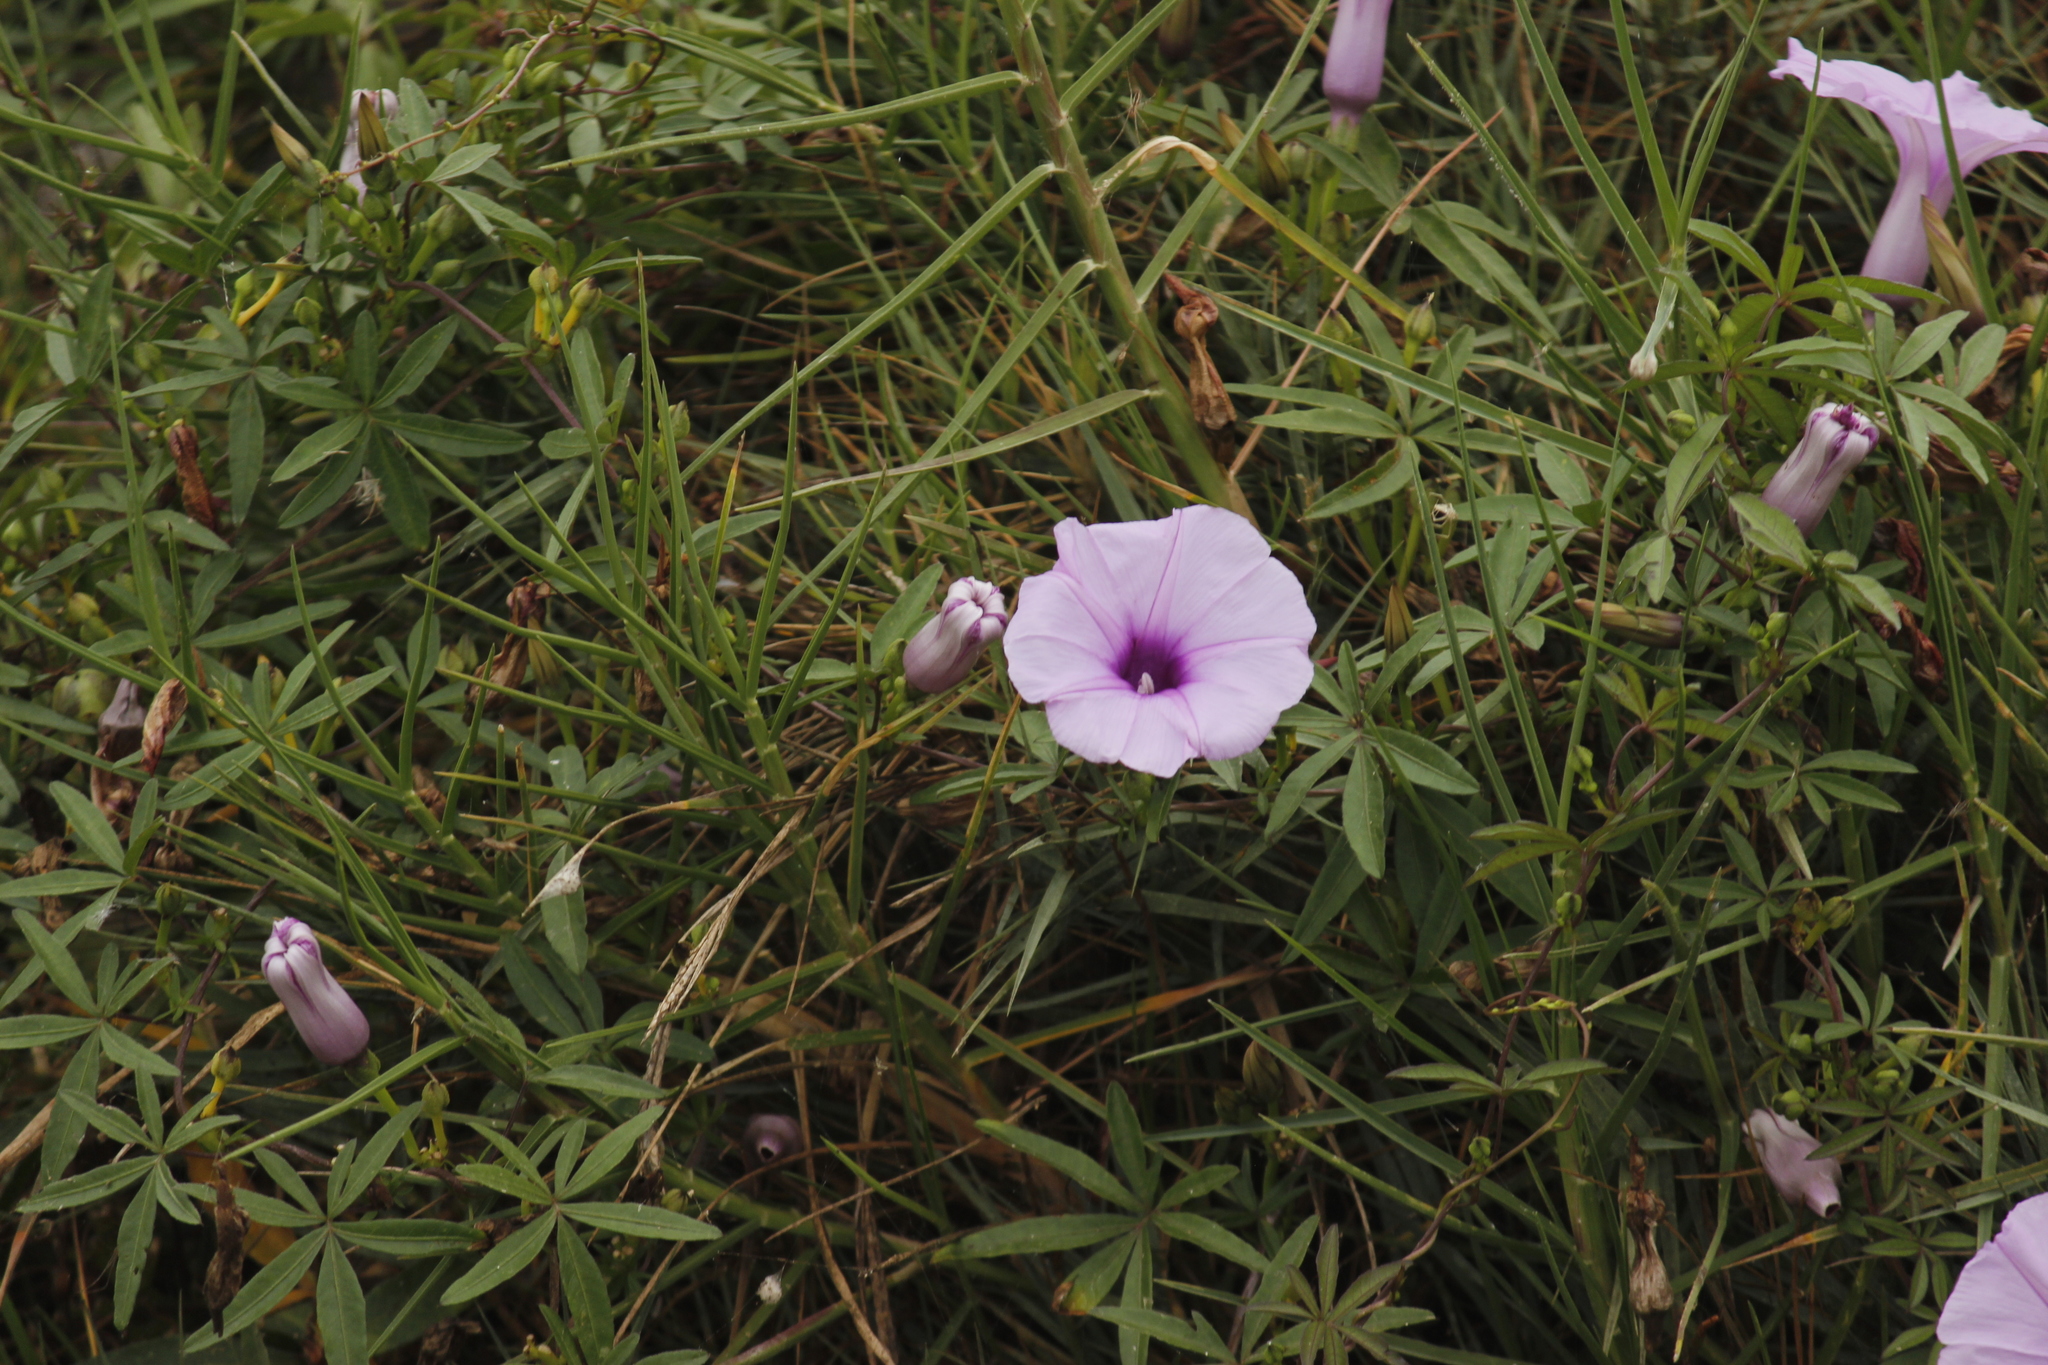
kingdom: Plantae
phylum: Tracheophyta
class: Magnoliopsida
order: Solanales
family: Convolvulaceae
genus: Ipomoea
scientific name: Ipomoea cairica
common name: Mile a minute vine
